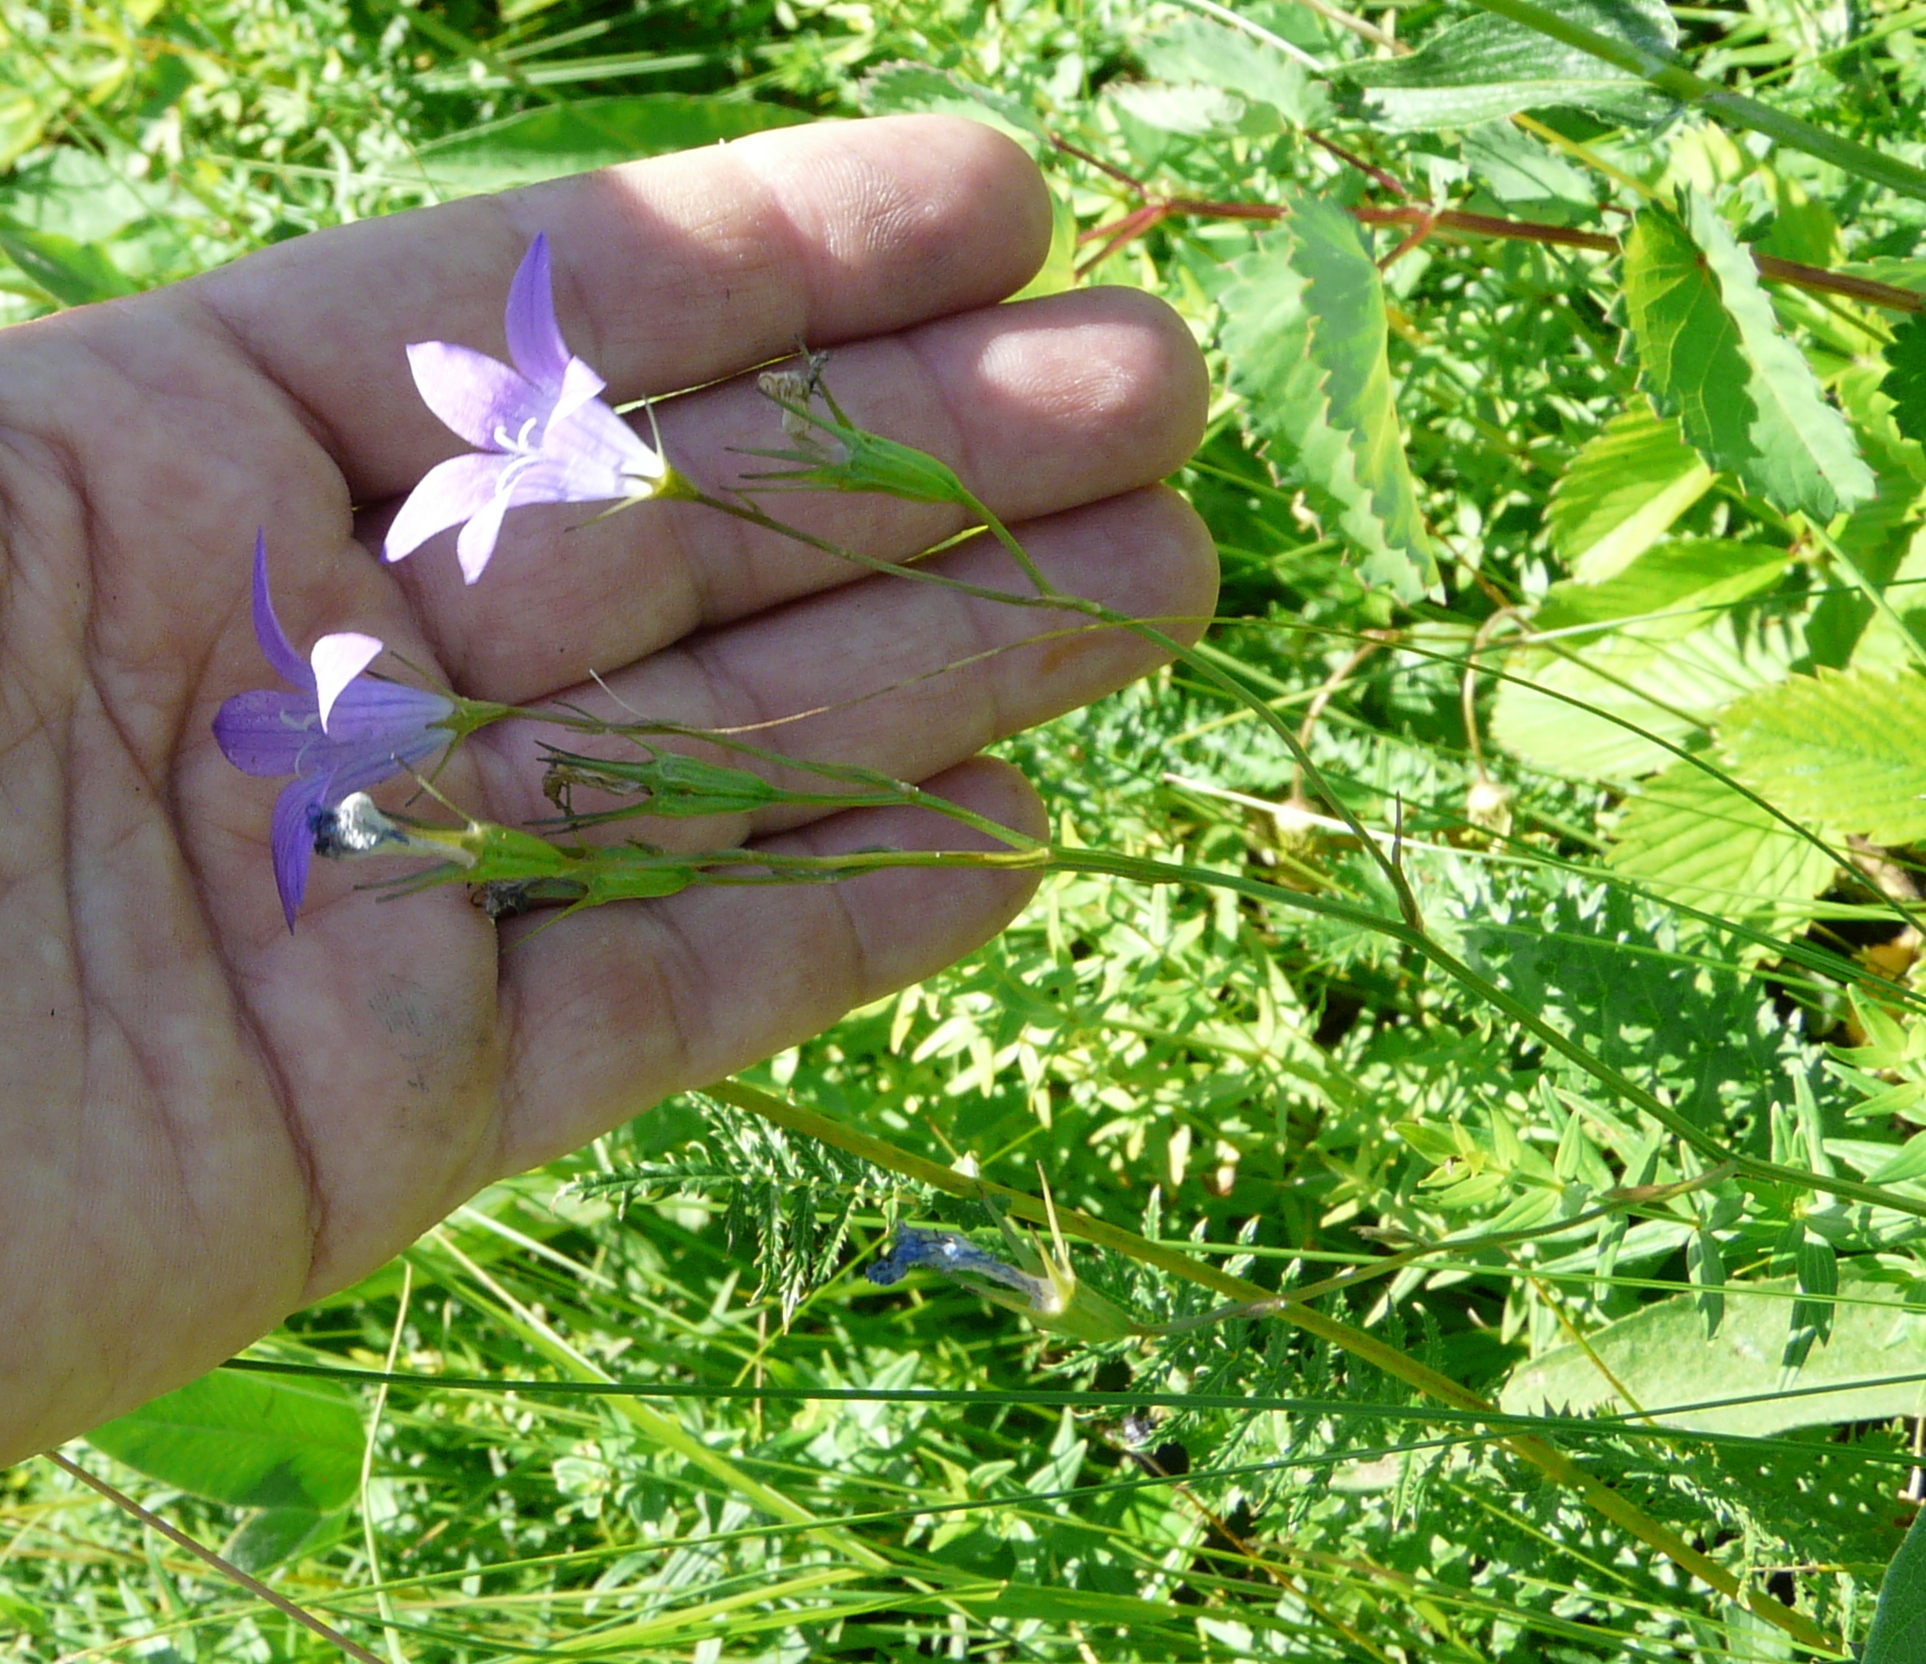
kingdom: Plantae
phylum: Tracheophyta
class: Magnoliopsida
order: Asterales
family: Campanulaceae
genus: Campanula
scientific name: Campanula patula
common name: Spreading bellflower
